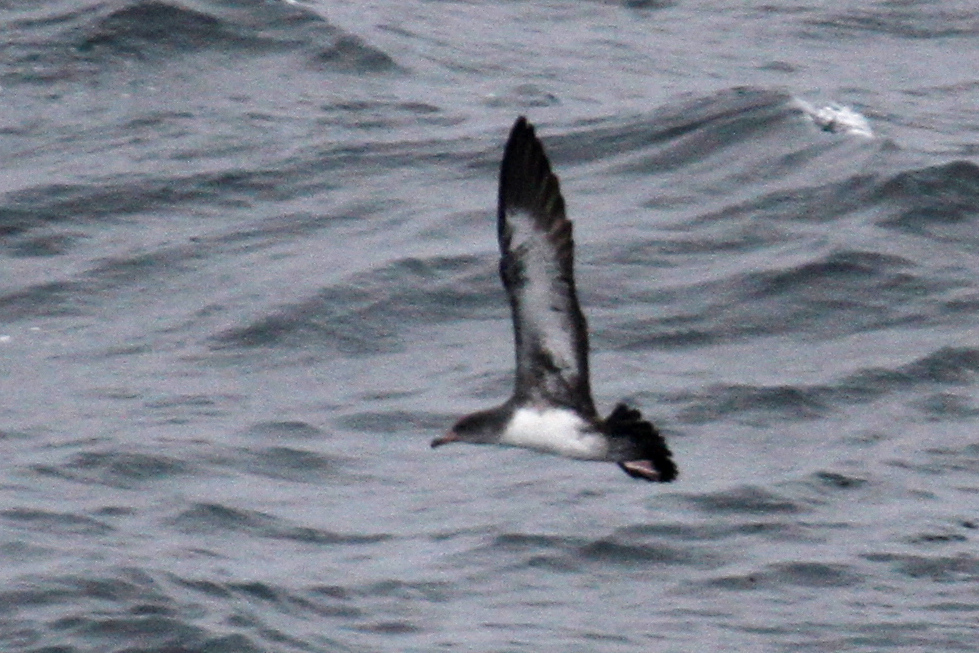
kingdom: Animalia
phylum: Chordata
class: Aves
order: Procellariiformes
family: Procellariidae
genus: Puffinus
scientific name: Puffinus creatopus
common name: Pink-footed shearwater
